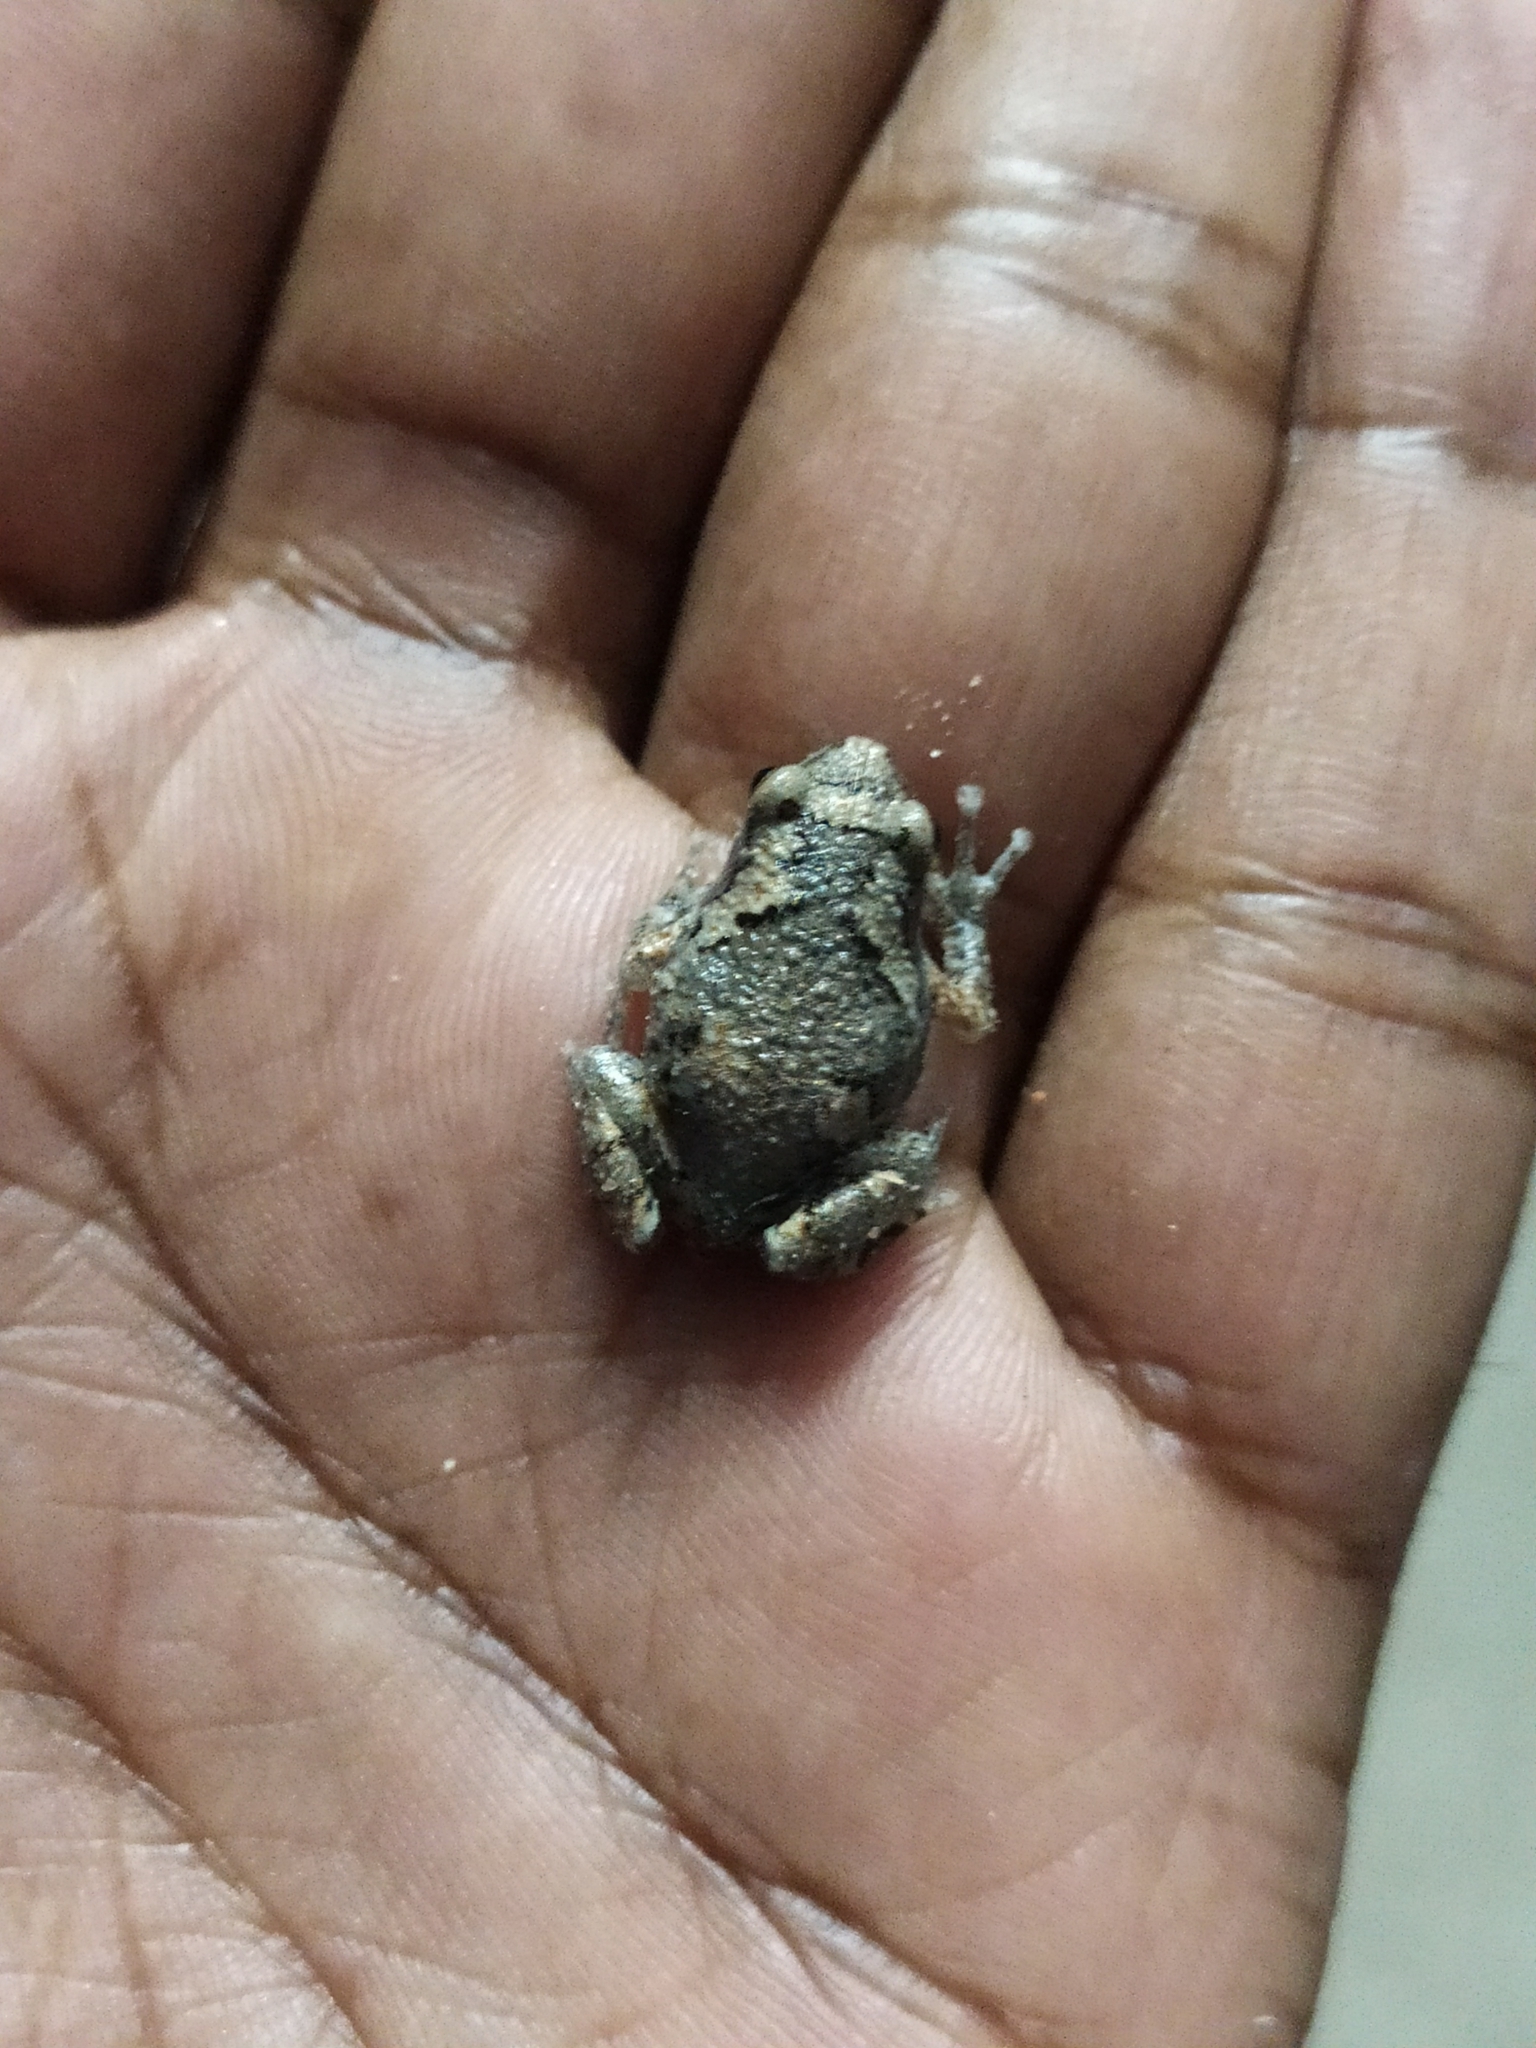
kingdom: Animalia
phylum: Chordata
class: Amphibia
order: Anura
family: Microhylidae
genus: Uperodon
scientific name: Uperodon taprobanicus
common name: Ceylon kaloula
